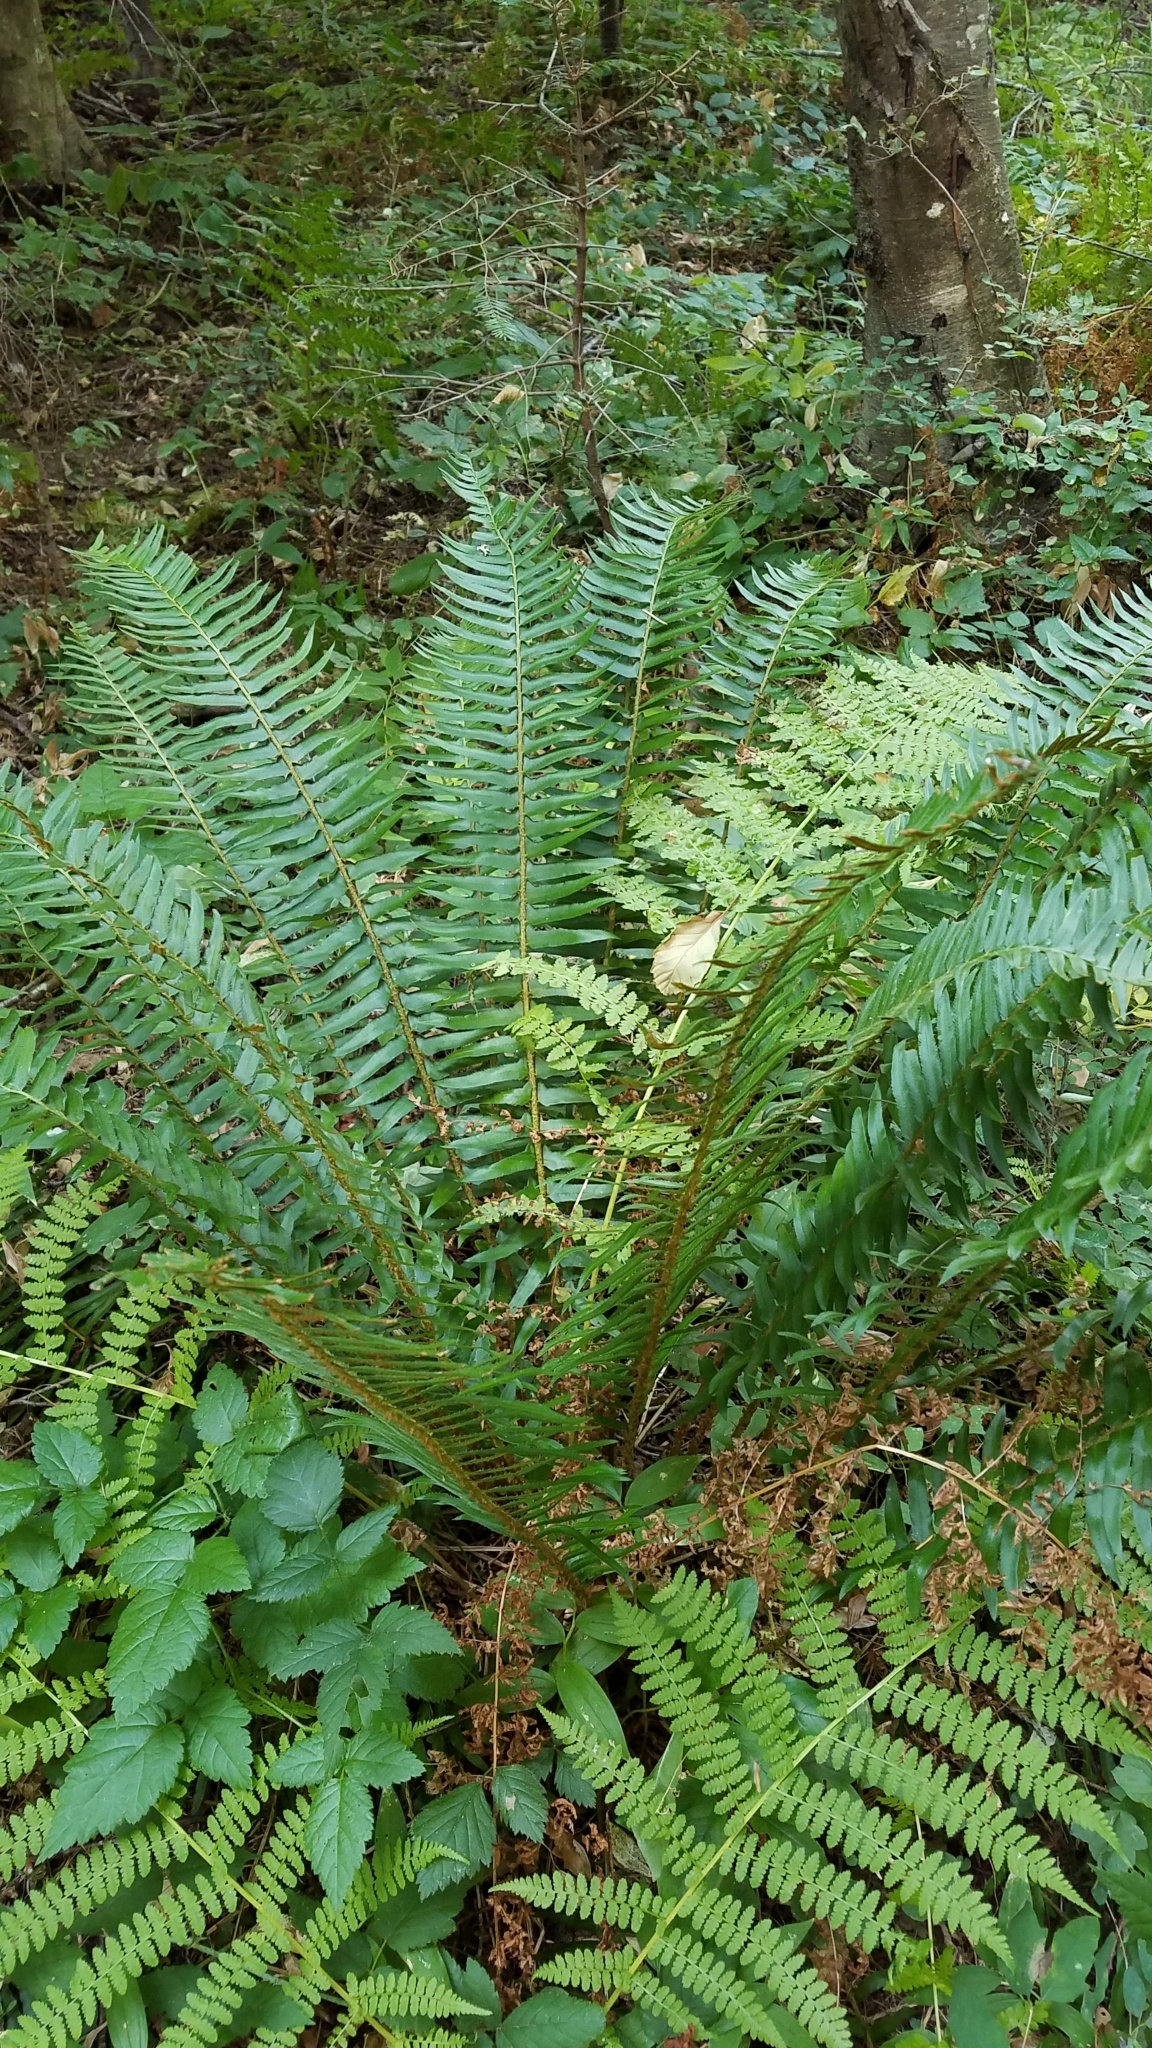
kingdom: Plantae
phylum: Tracheophyta
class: Polypodiopsida
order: Polypodiales
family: Dryopteridaceae
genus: Polystichum
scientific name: Polystichum munitum
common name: Western sword-fern
